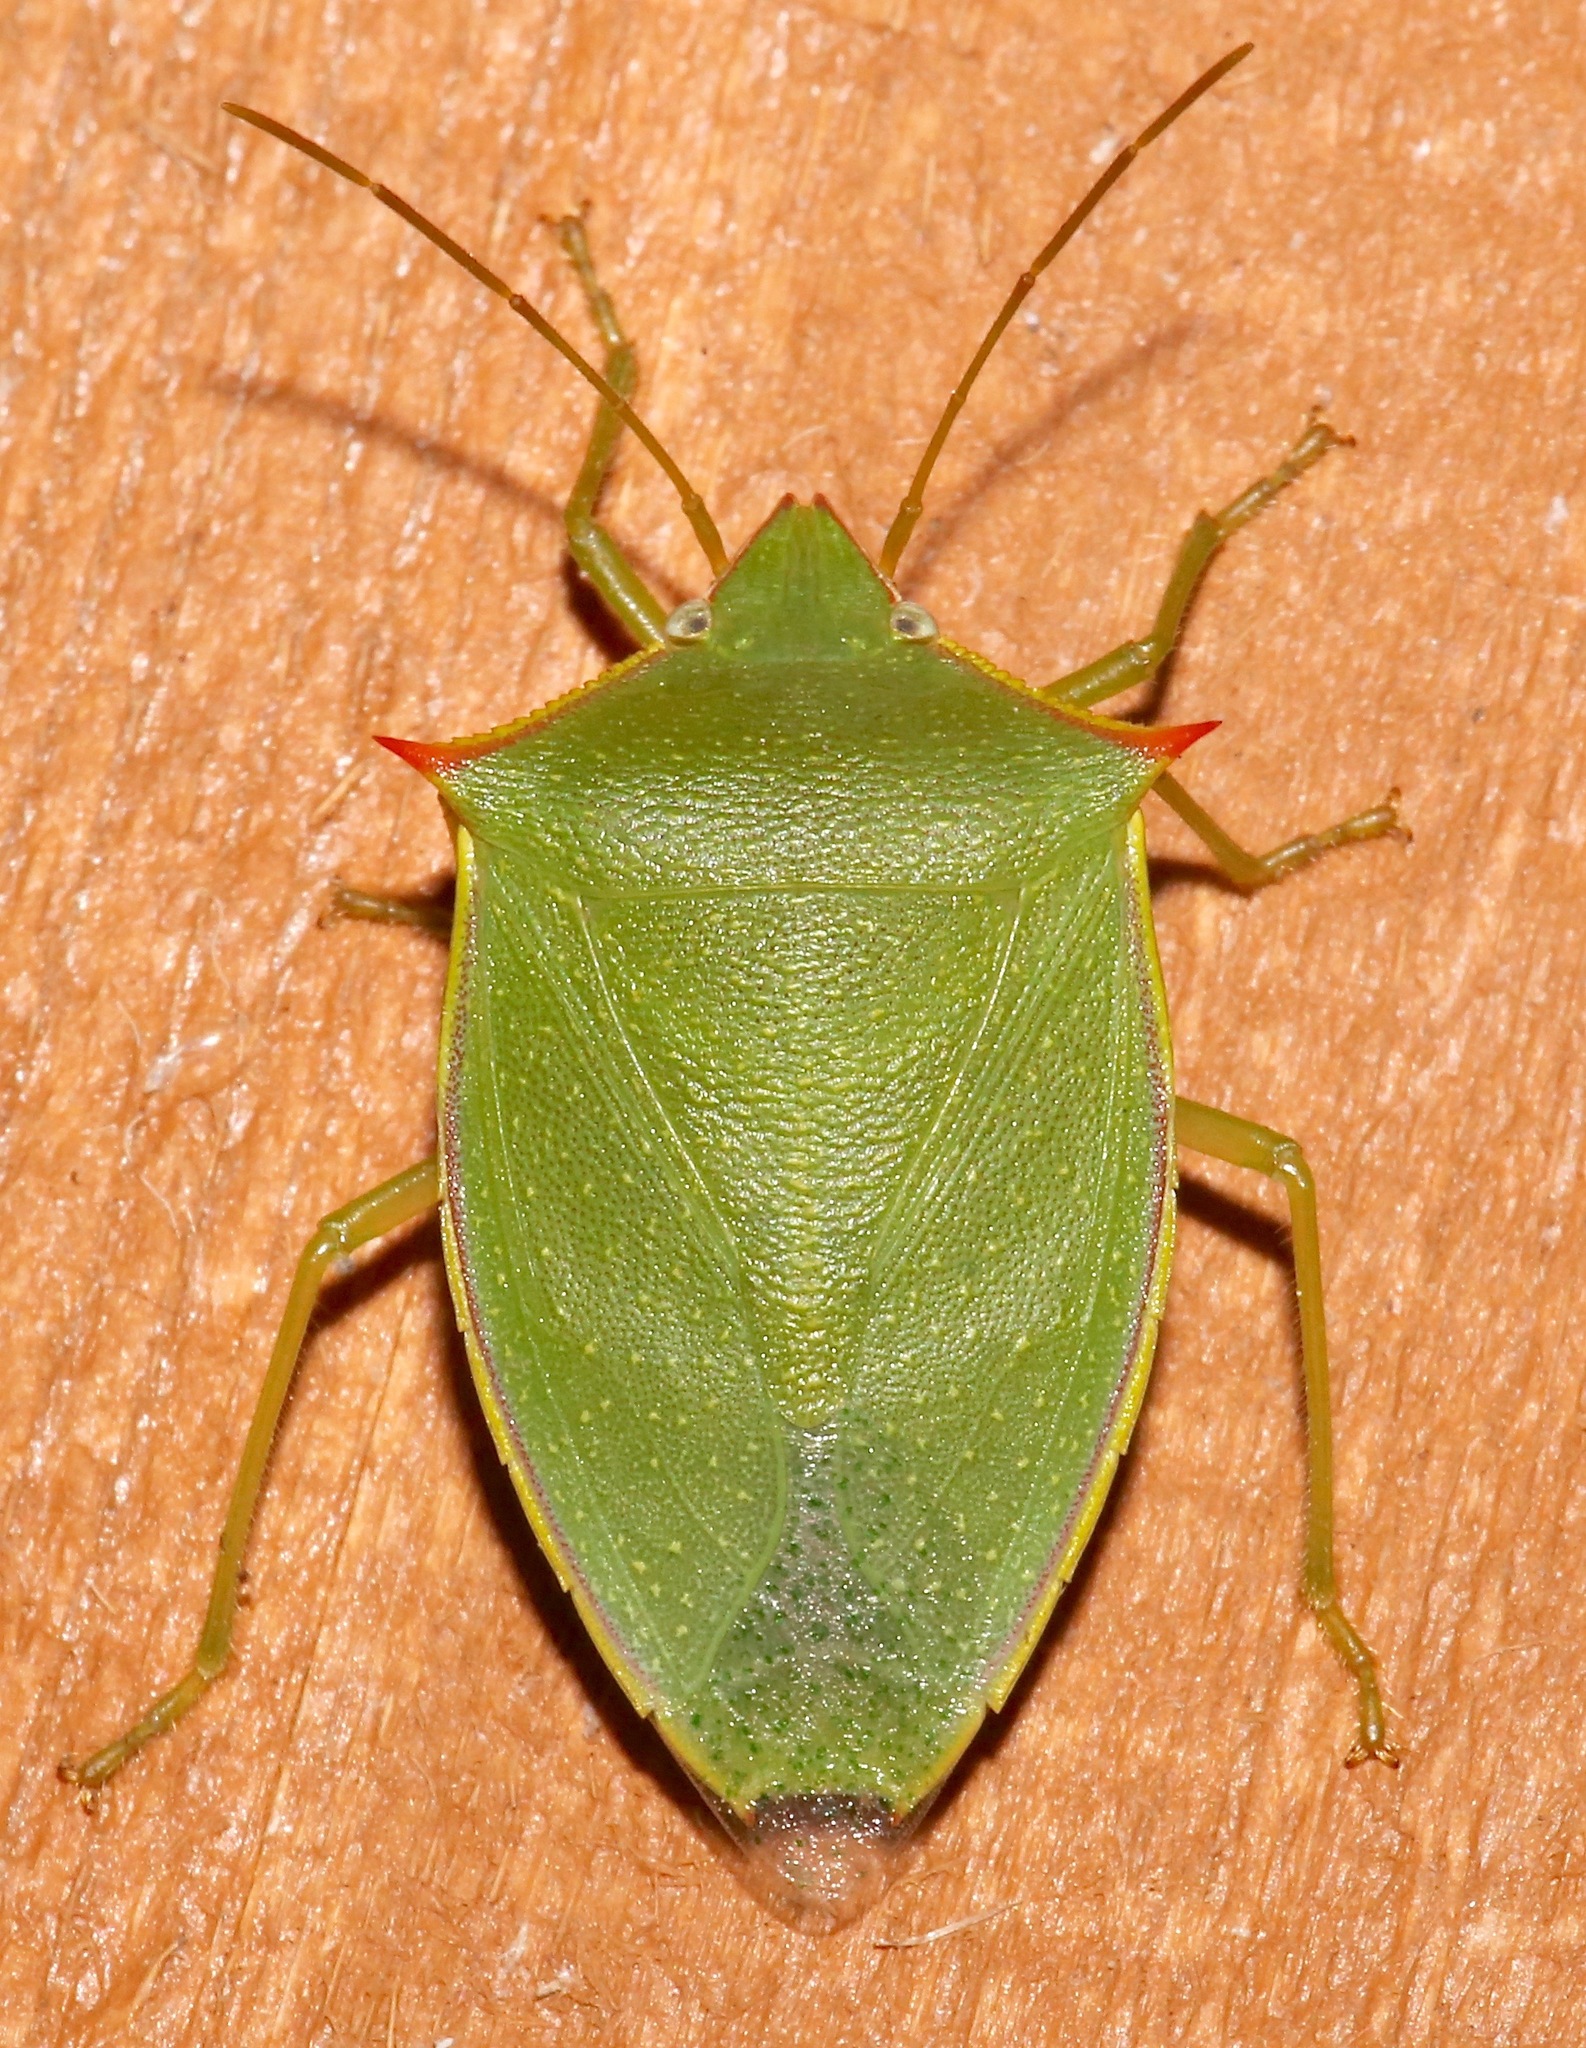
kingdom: Animalia
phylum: Arthropoda
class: Insecta
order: Hemiptera
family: Pentatomidae
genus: Loxa
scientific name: Loxa flavicollis
